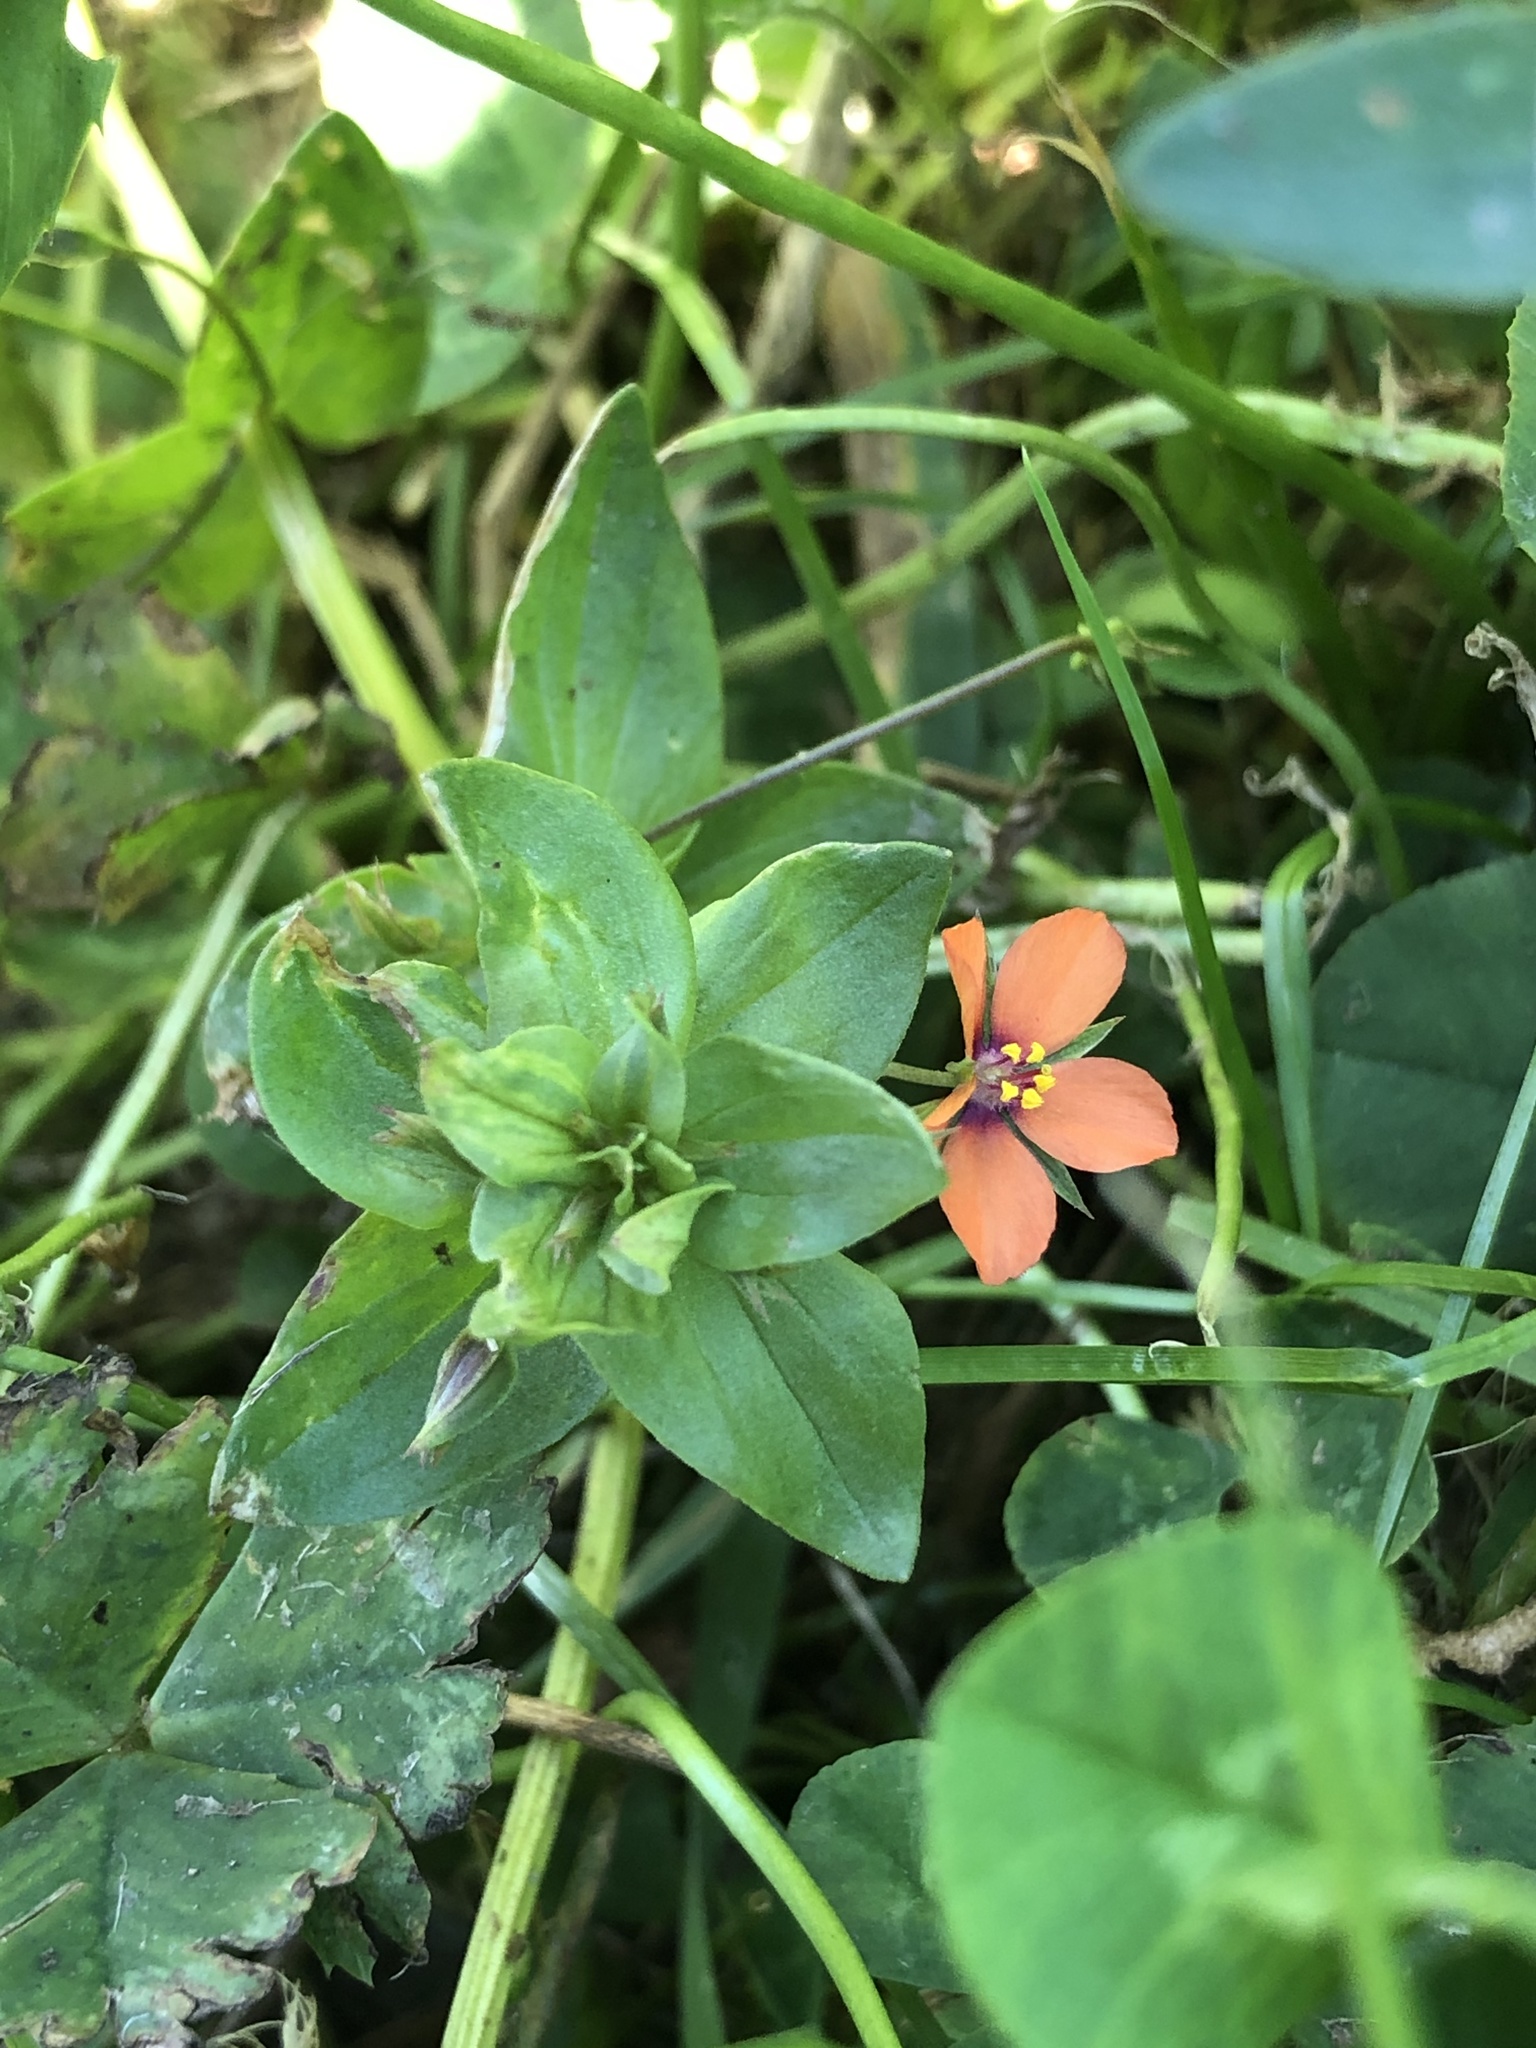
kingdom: Plantae
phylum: Tracheophyta
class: Magnoliopsida
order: Ericales
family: Primulaceae
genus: Lysimachia
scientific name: Lysimachia arvensis
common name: Scarlet pimpernel
